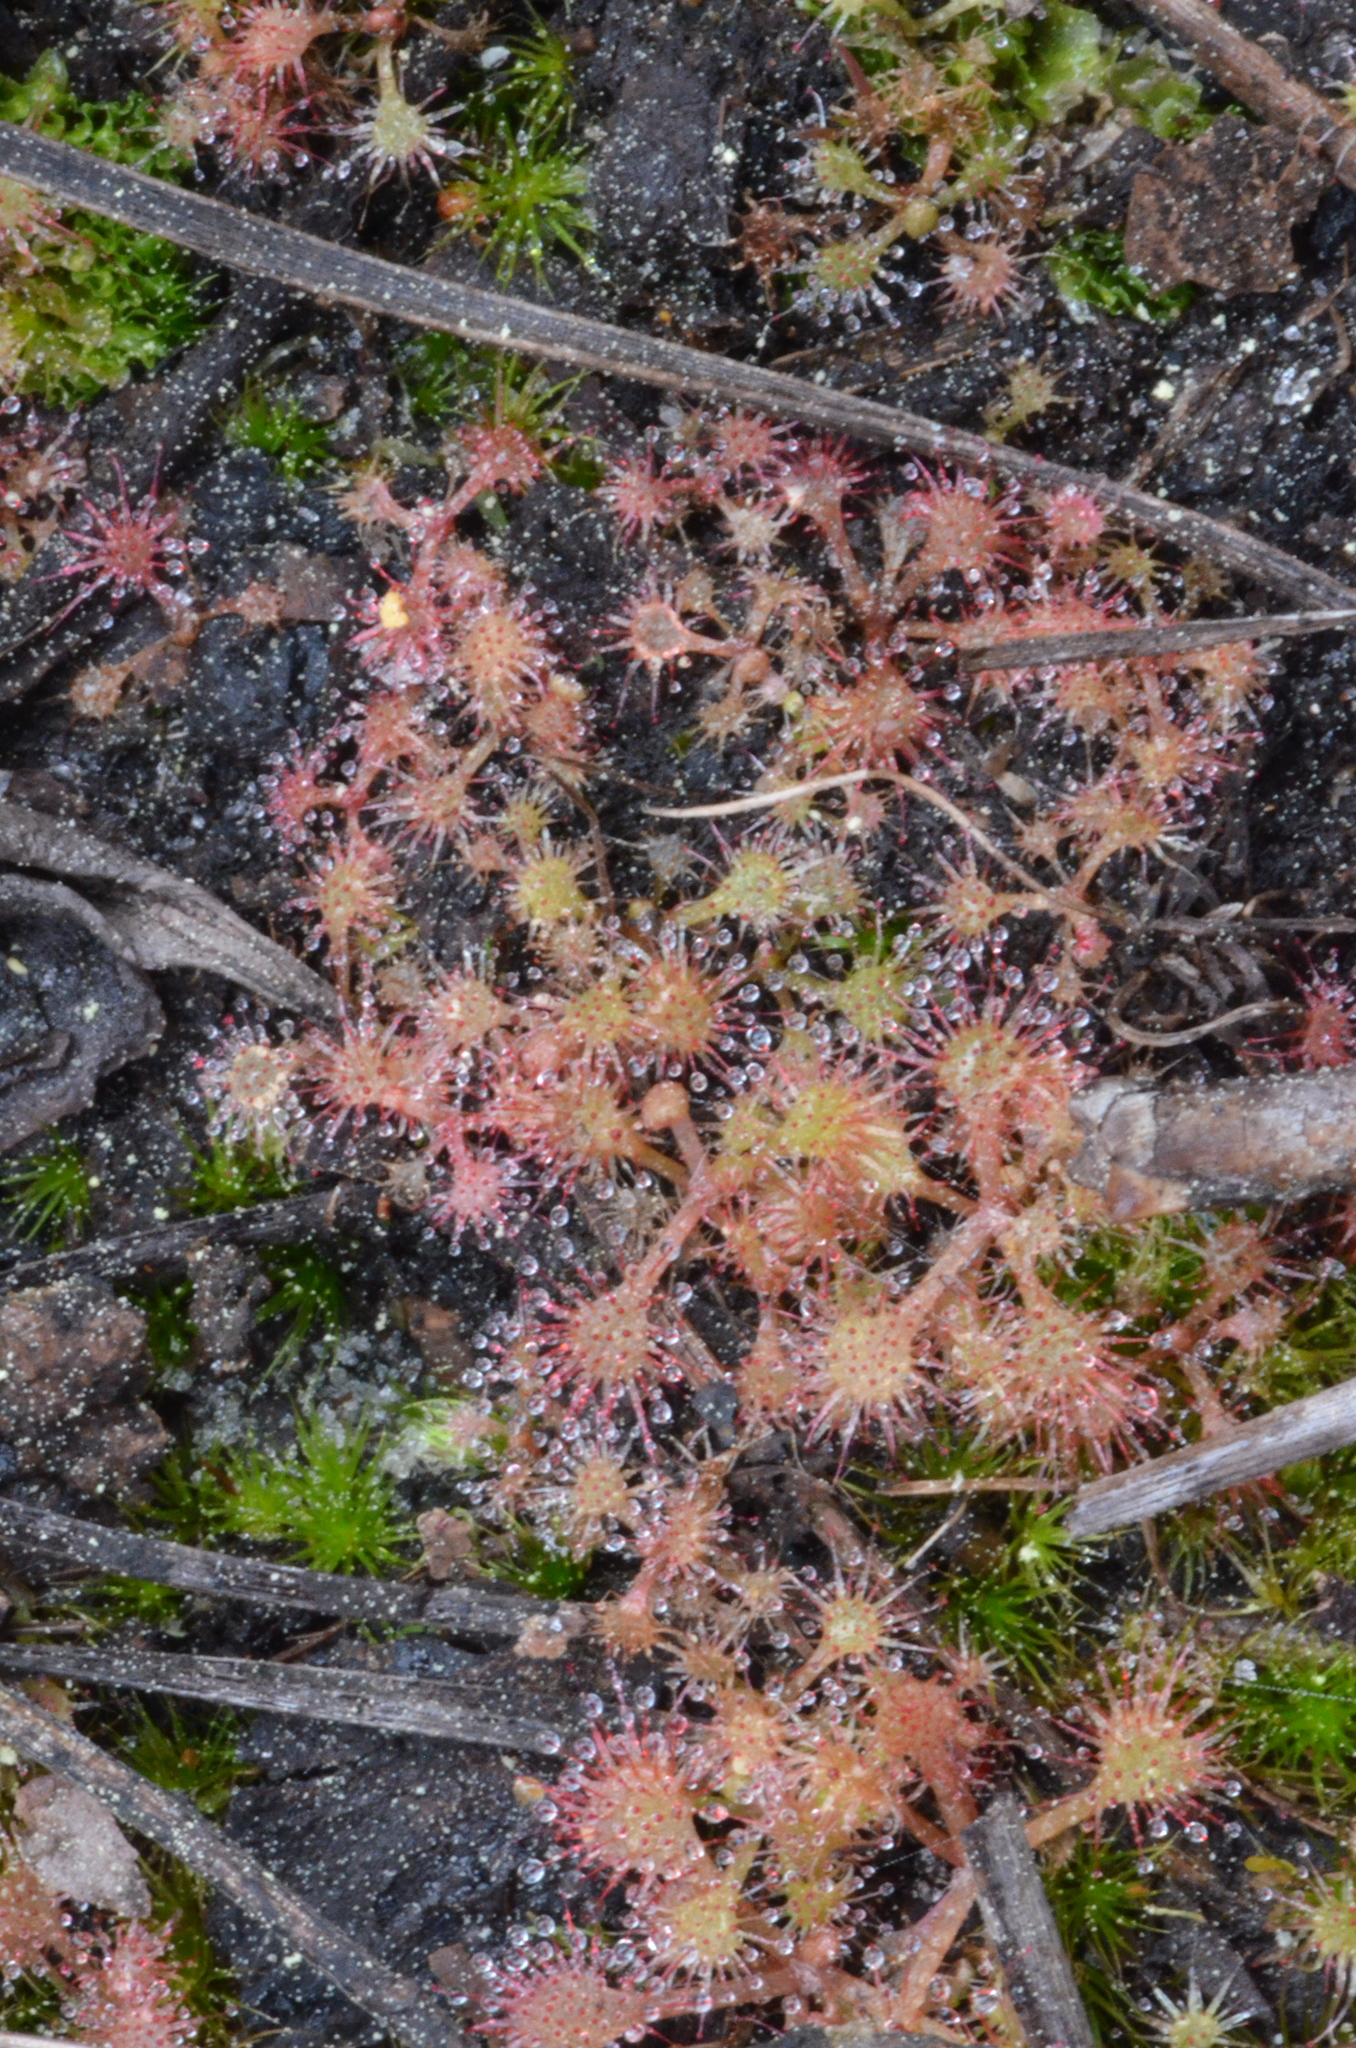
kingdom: Plantae
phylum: Tracheophyta
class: Magnoliopsida
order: Caryophyllales
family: Droseraceae
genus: Drosera
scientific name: Drosera capillaris
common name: Pink sundew
